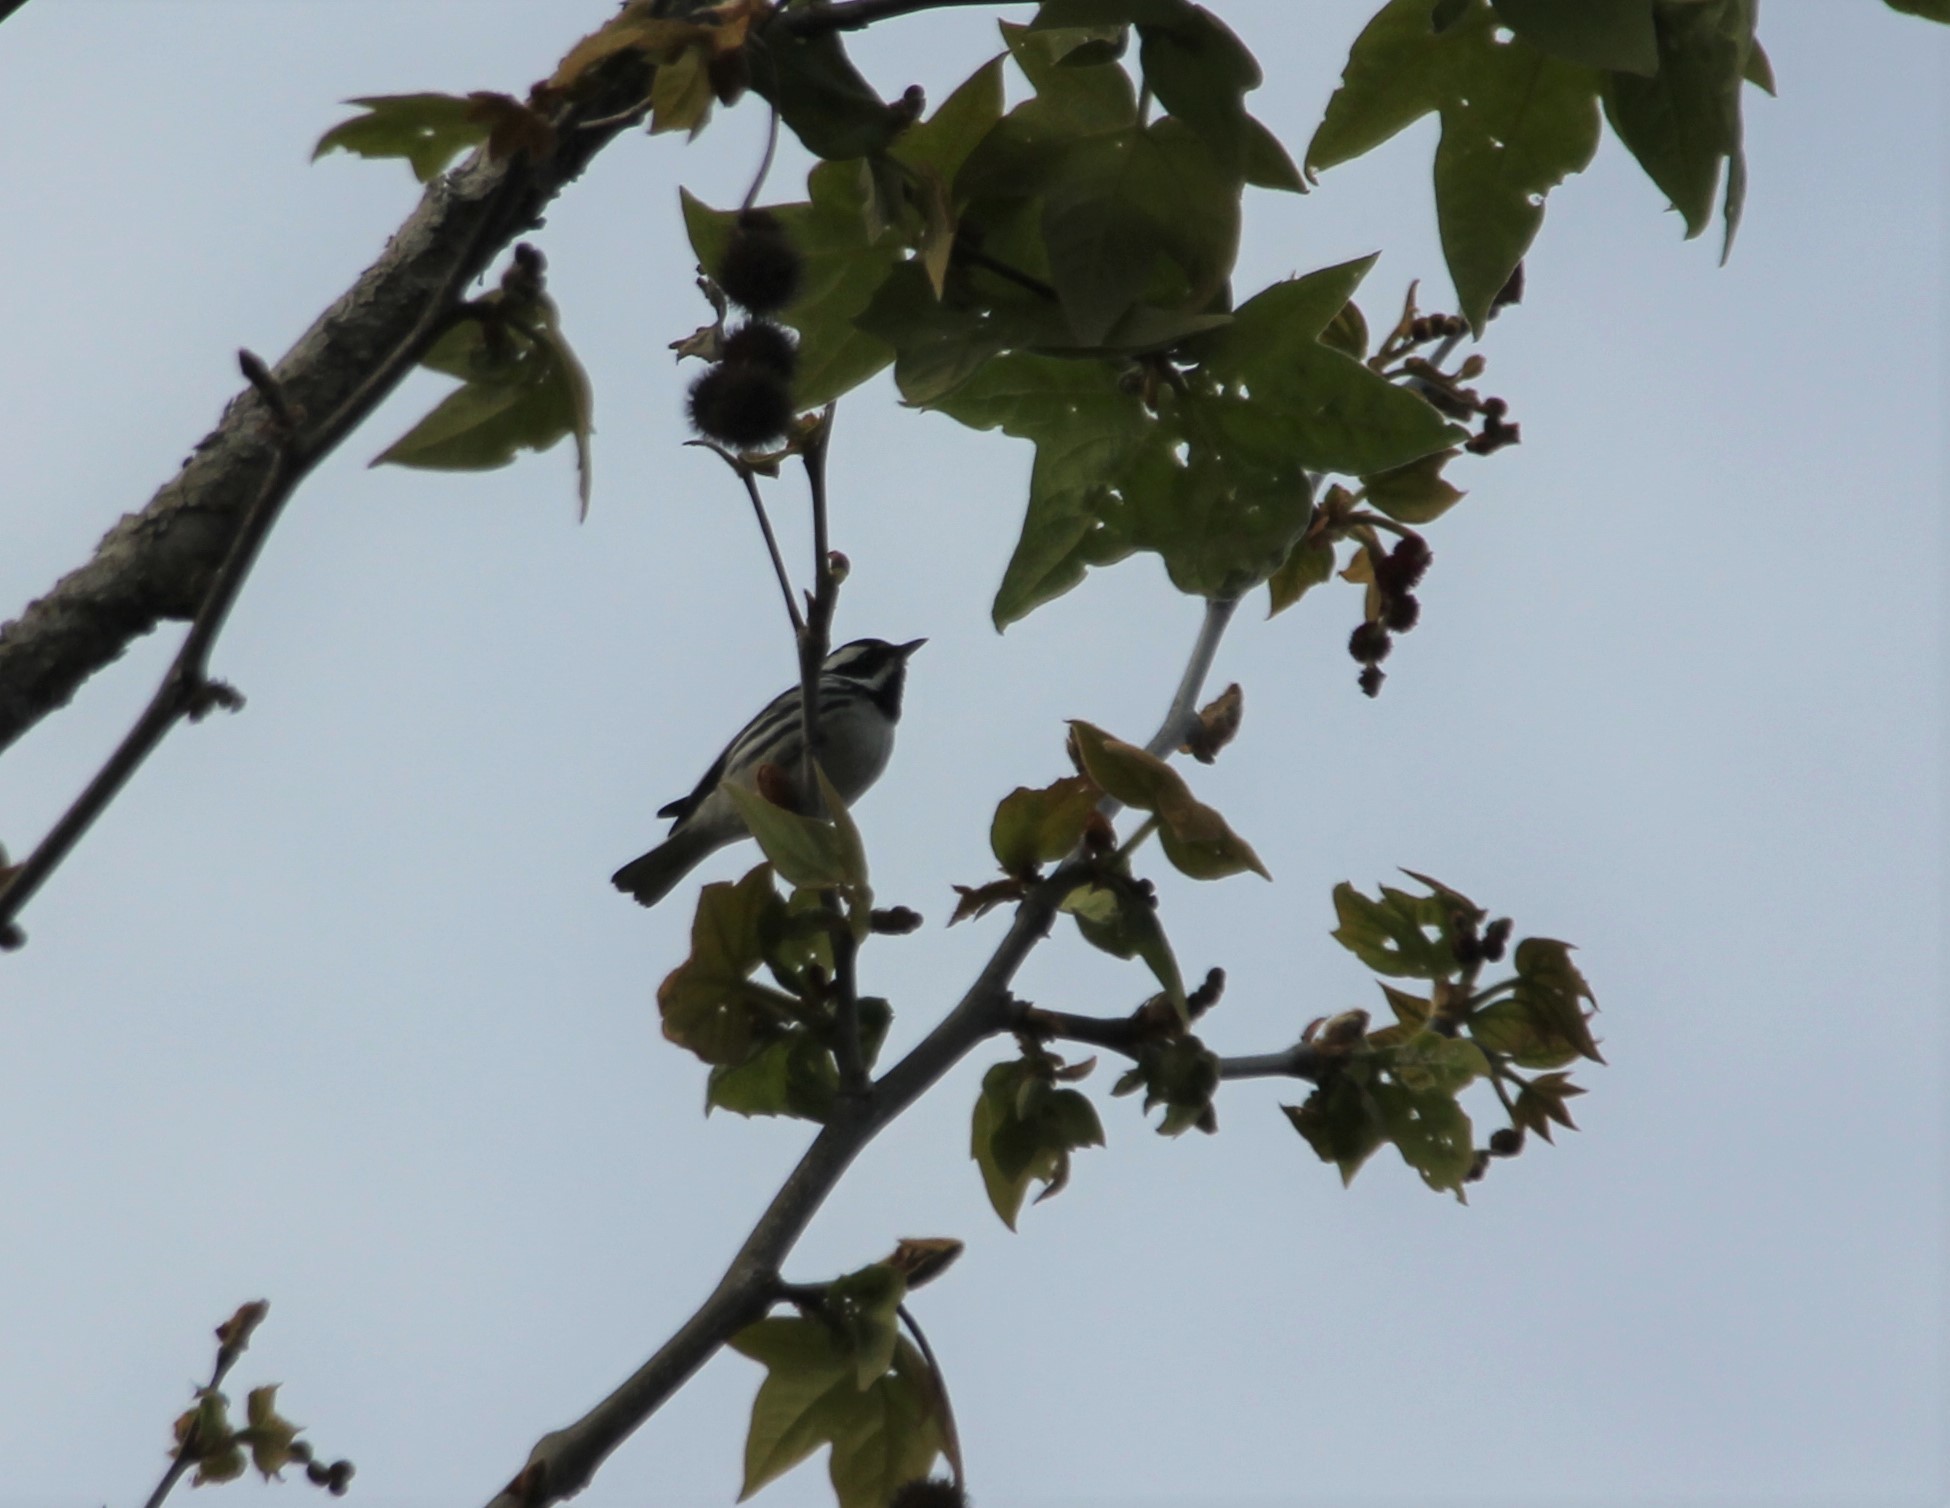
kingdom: Animalia
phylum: Chordata
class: Aves
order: Passeriformes
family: Parulidae
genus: Setophaga
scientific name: Setophaga nigrescens
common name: Black-throated gray warbler
